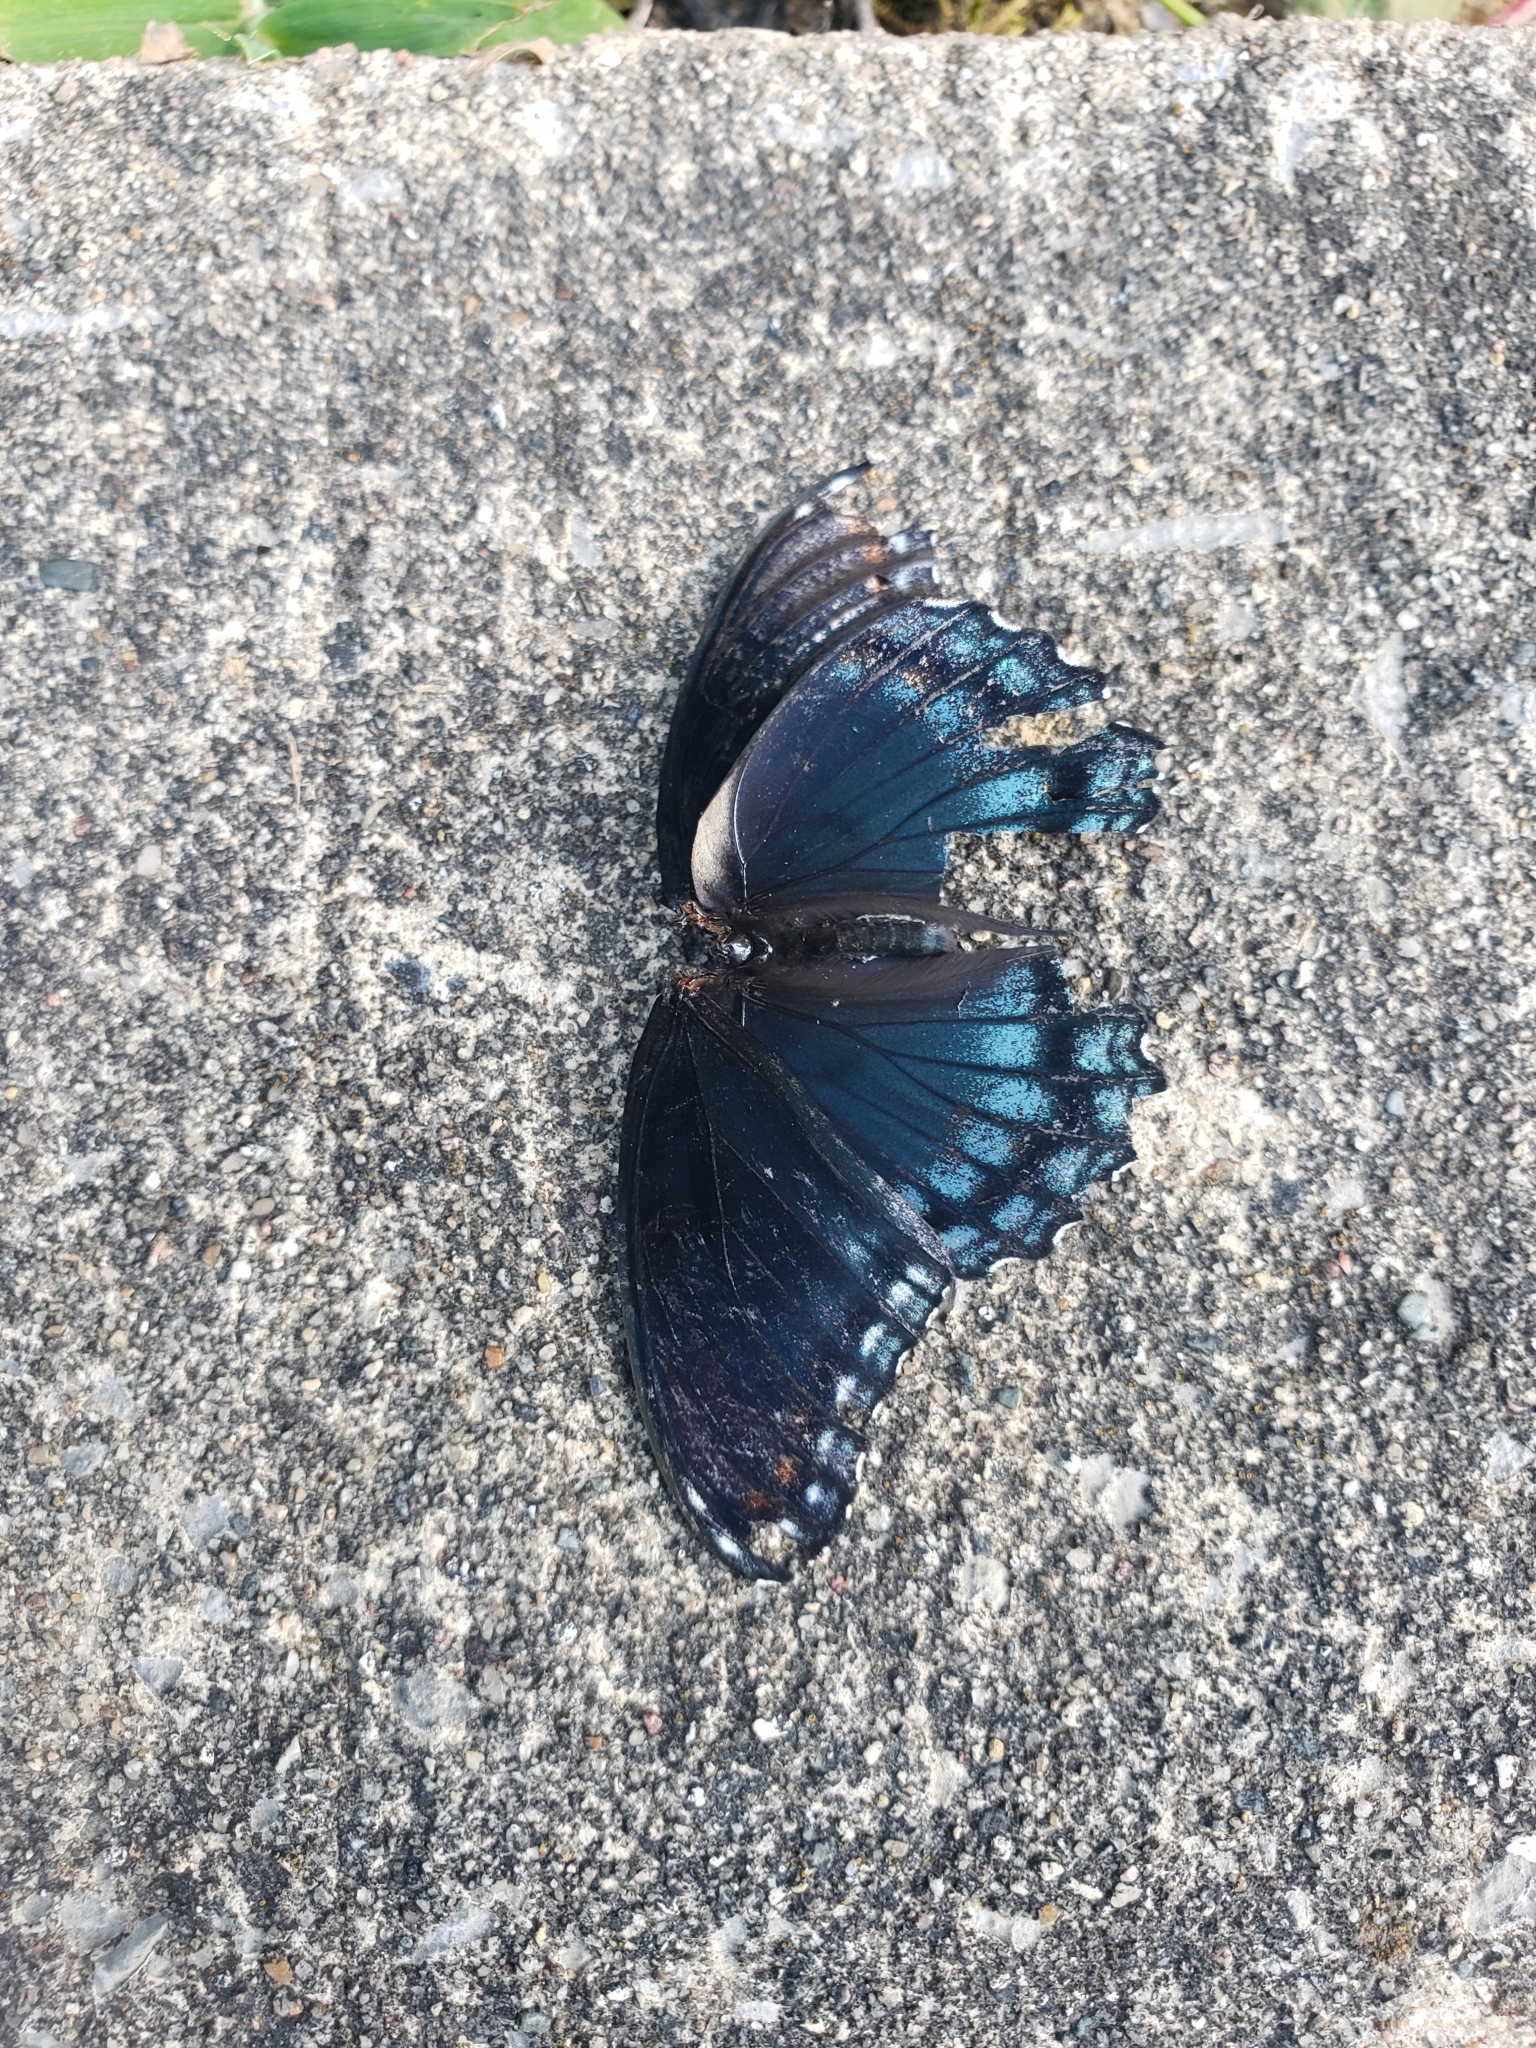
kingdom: Animalia
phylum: Arthropoda
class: Insecta
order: Lepidoptera
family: Nymphalidae
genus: Limenitis
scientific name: Limenitis astyanax
